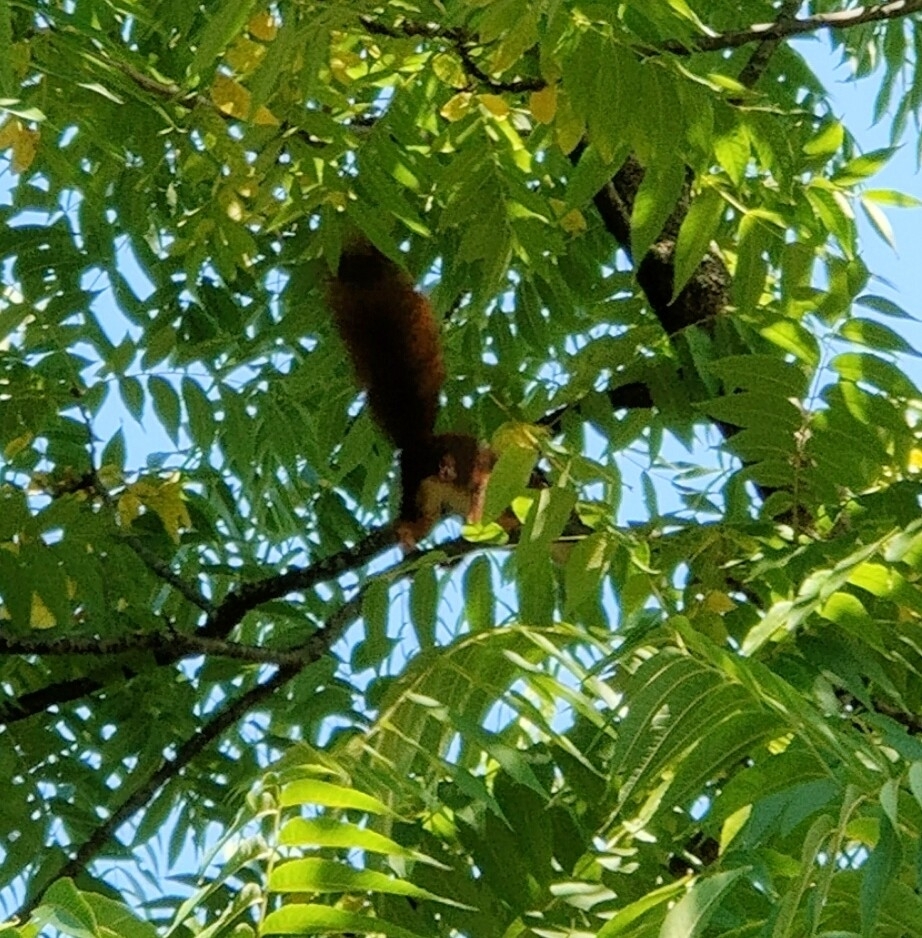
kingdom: Animalia
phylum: Chordata
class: Mammalia
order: Rodentia
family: Sciuridae
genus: Sciurus
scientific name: Sciurus vulgaris
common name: Eurasian red squirrel
